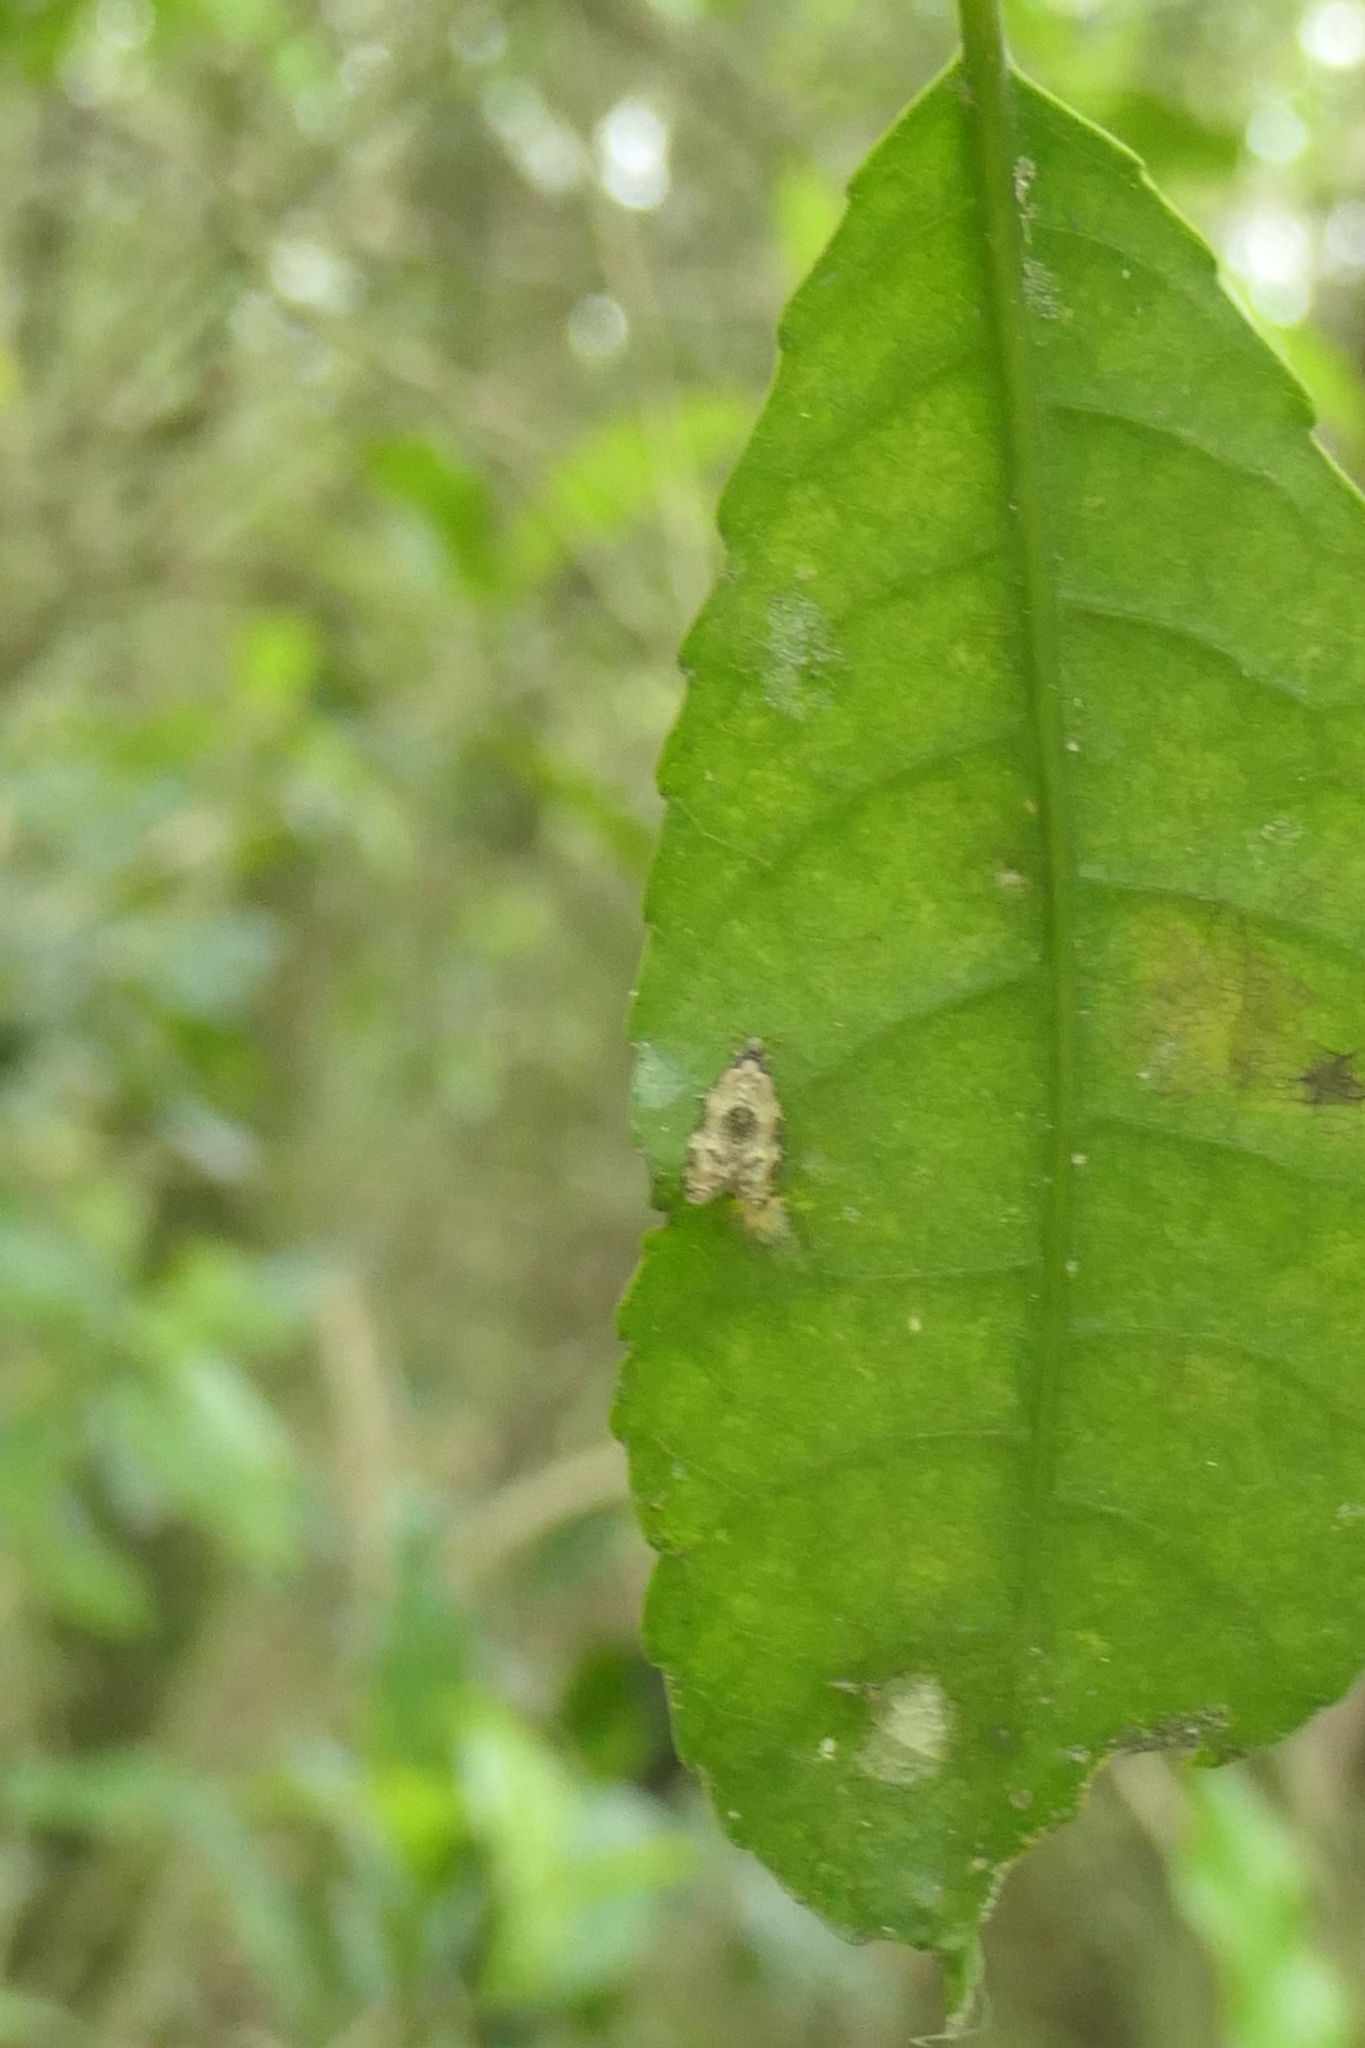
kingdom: Animalia
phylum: Arthropoda
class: Insecta
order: Lepidoptera
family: Tortricidae
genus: Dipterina
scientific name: Dipterina imbriferana
